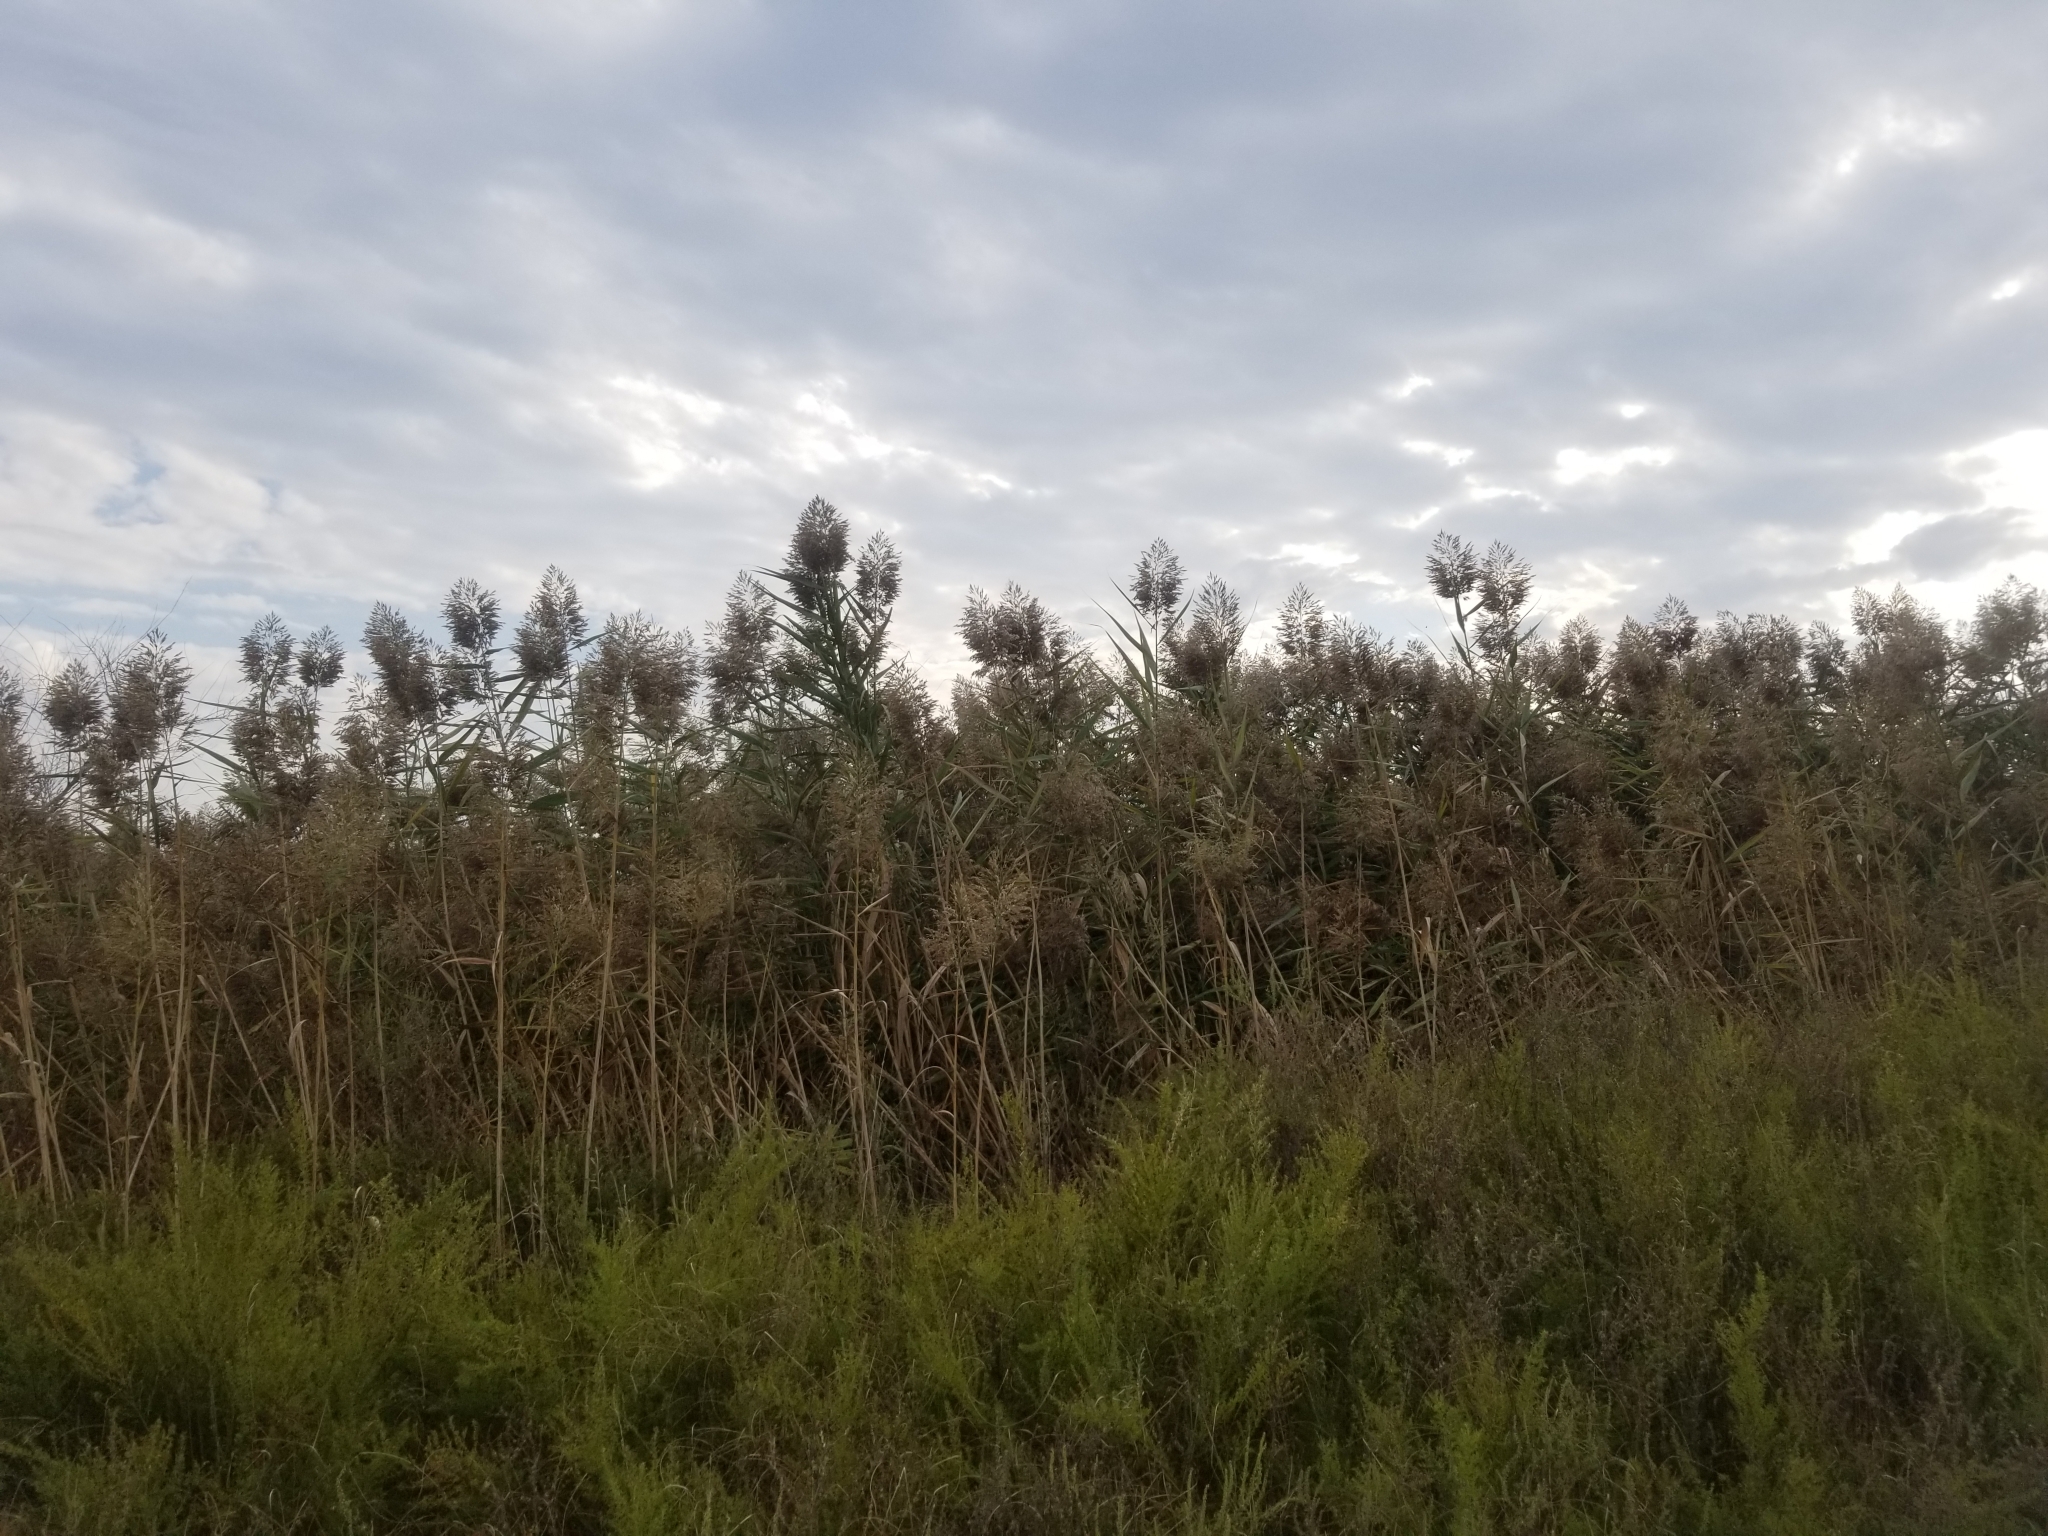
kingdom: Plantae
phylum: Tracheophyta
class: Liliopsida
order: Poales
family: Poaceae
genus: Phragmites
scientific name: Phragmites australis
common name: Common reed
